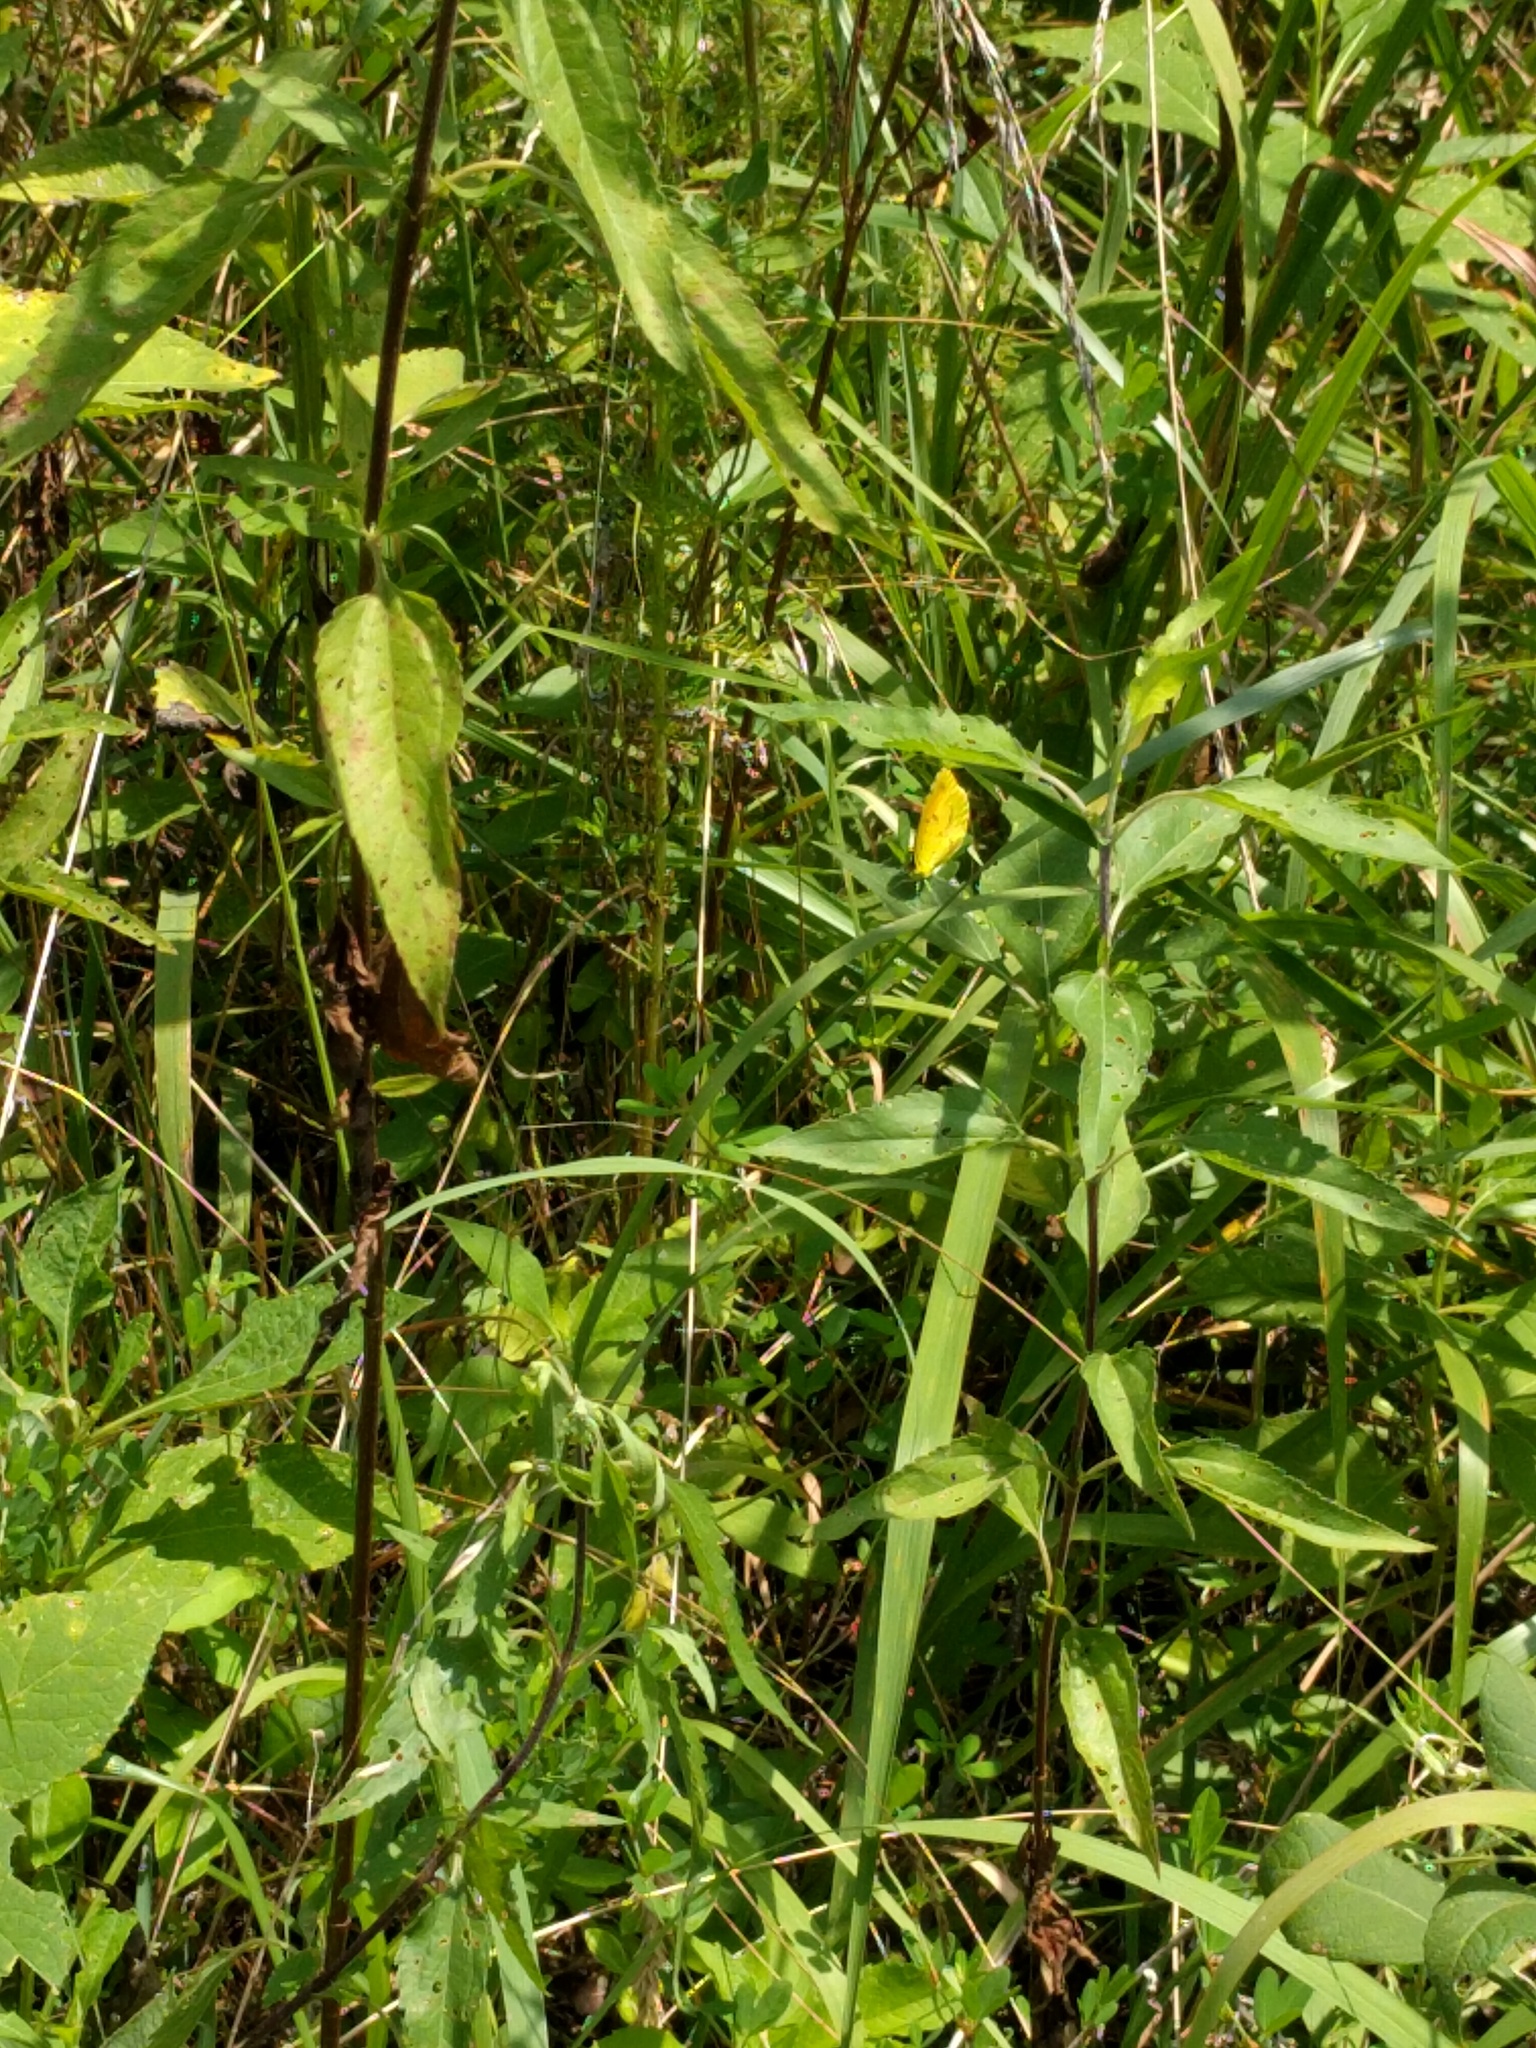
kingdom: Animalia
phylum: Arthropoda
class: Insecta
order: Lepidoptera
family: Pieridae
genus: Abaeis
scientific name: Abaeis nicippe
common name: Sleepy orange
